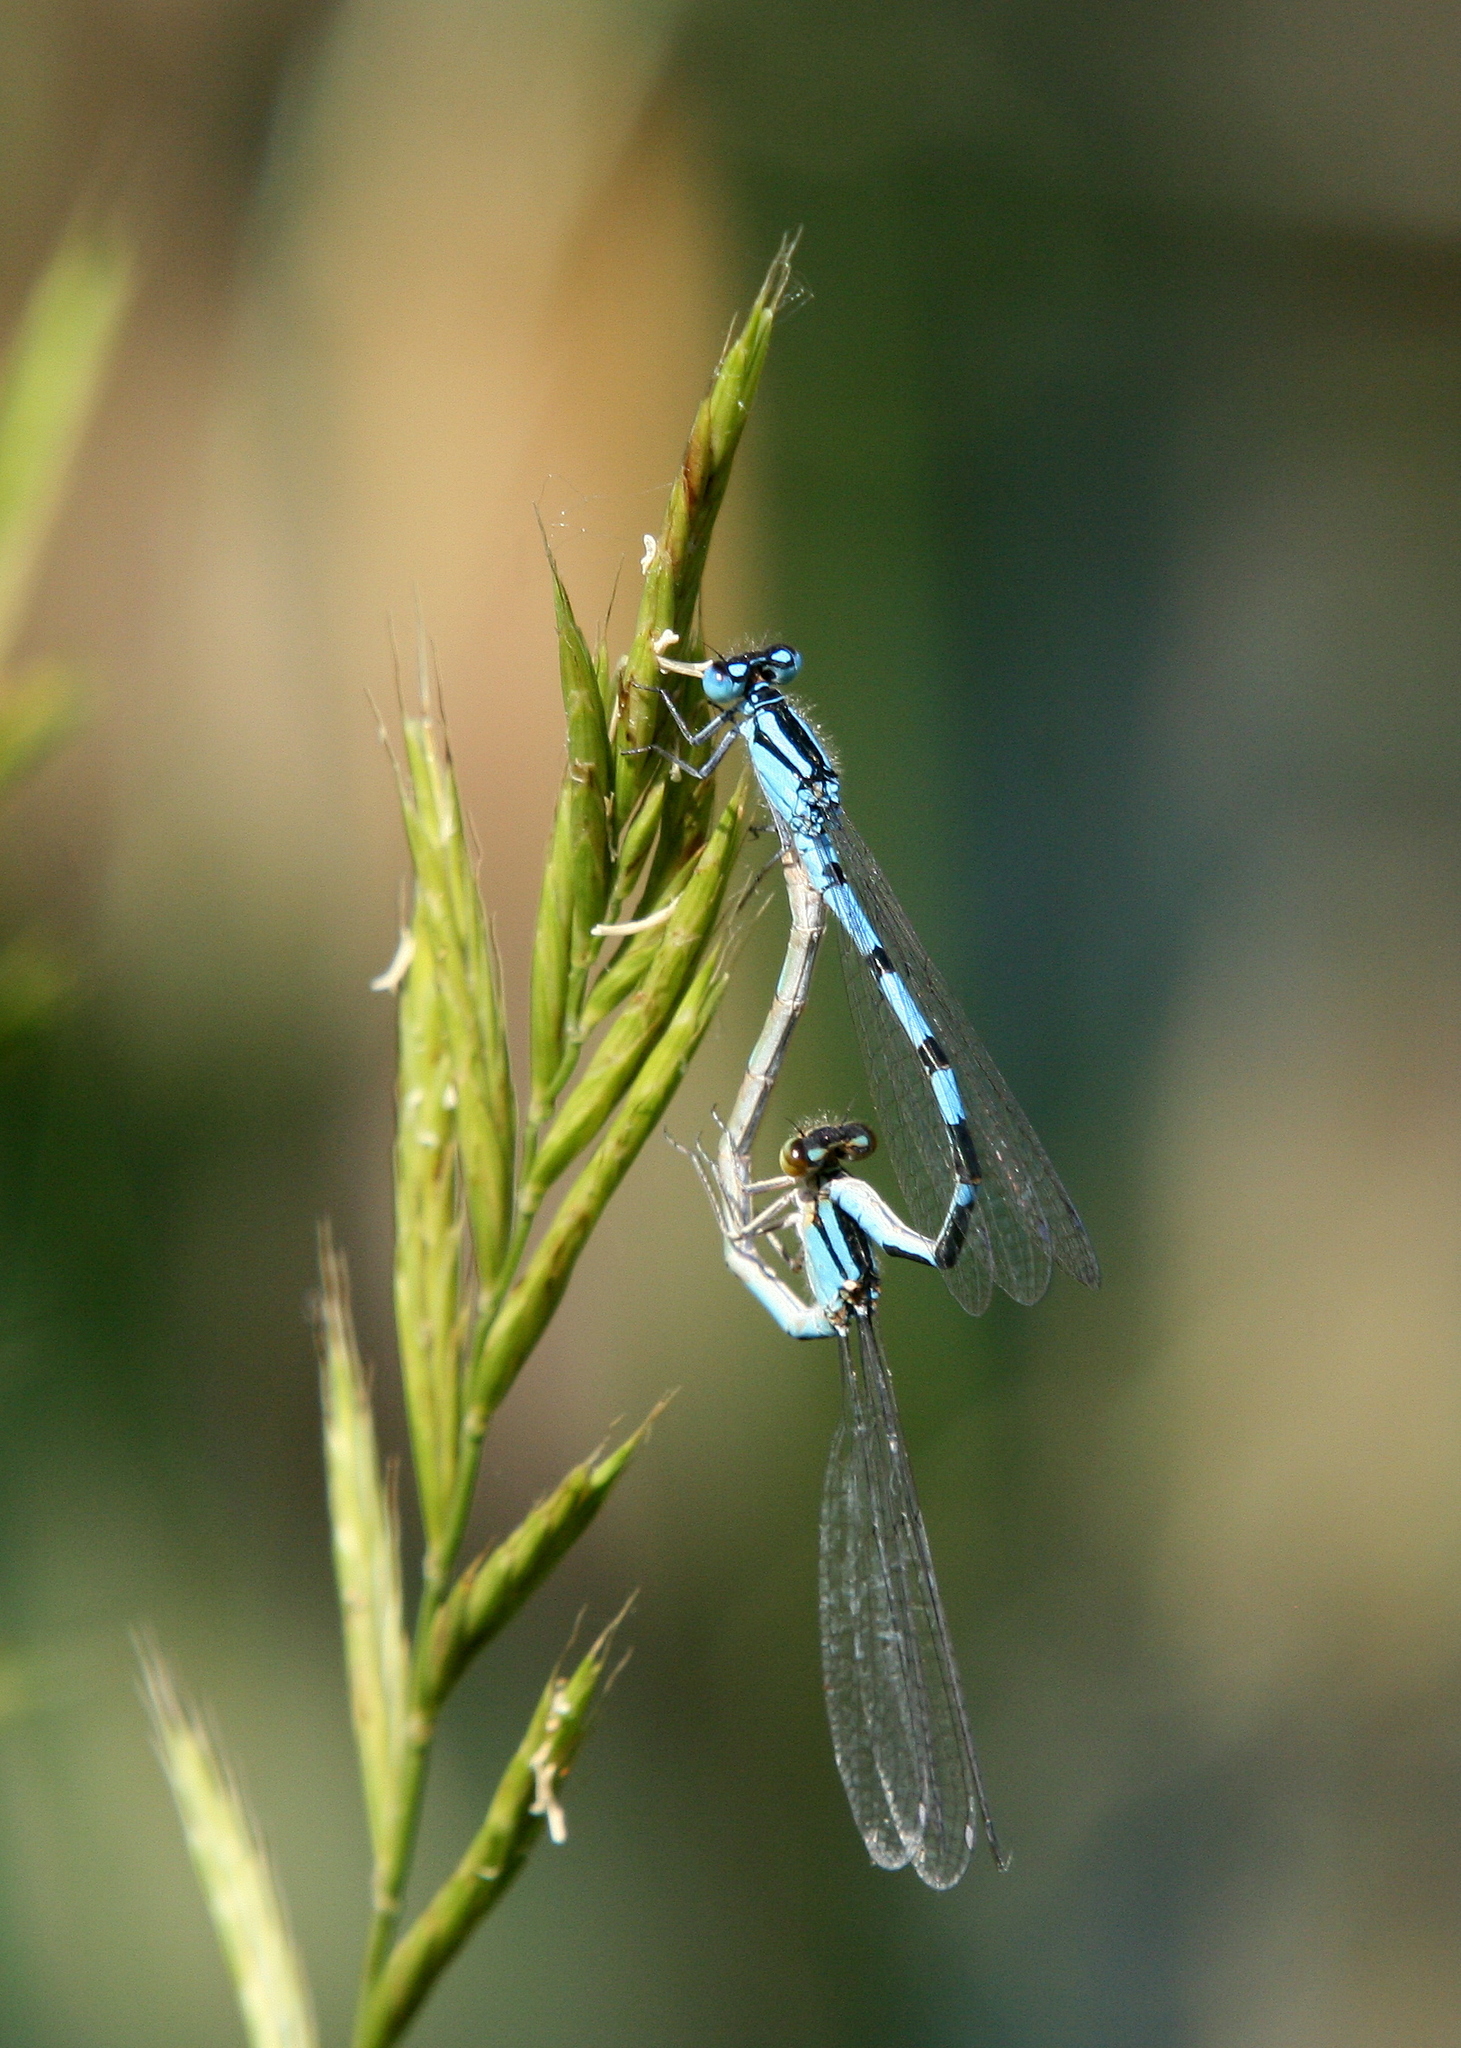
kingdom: Animalia
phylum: Arthropoda
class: Insecta
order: Odonata
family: Coenagrionidae
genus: Enallagma
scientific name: Enallagma cyathigerum
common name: Common blue damselfly
